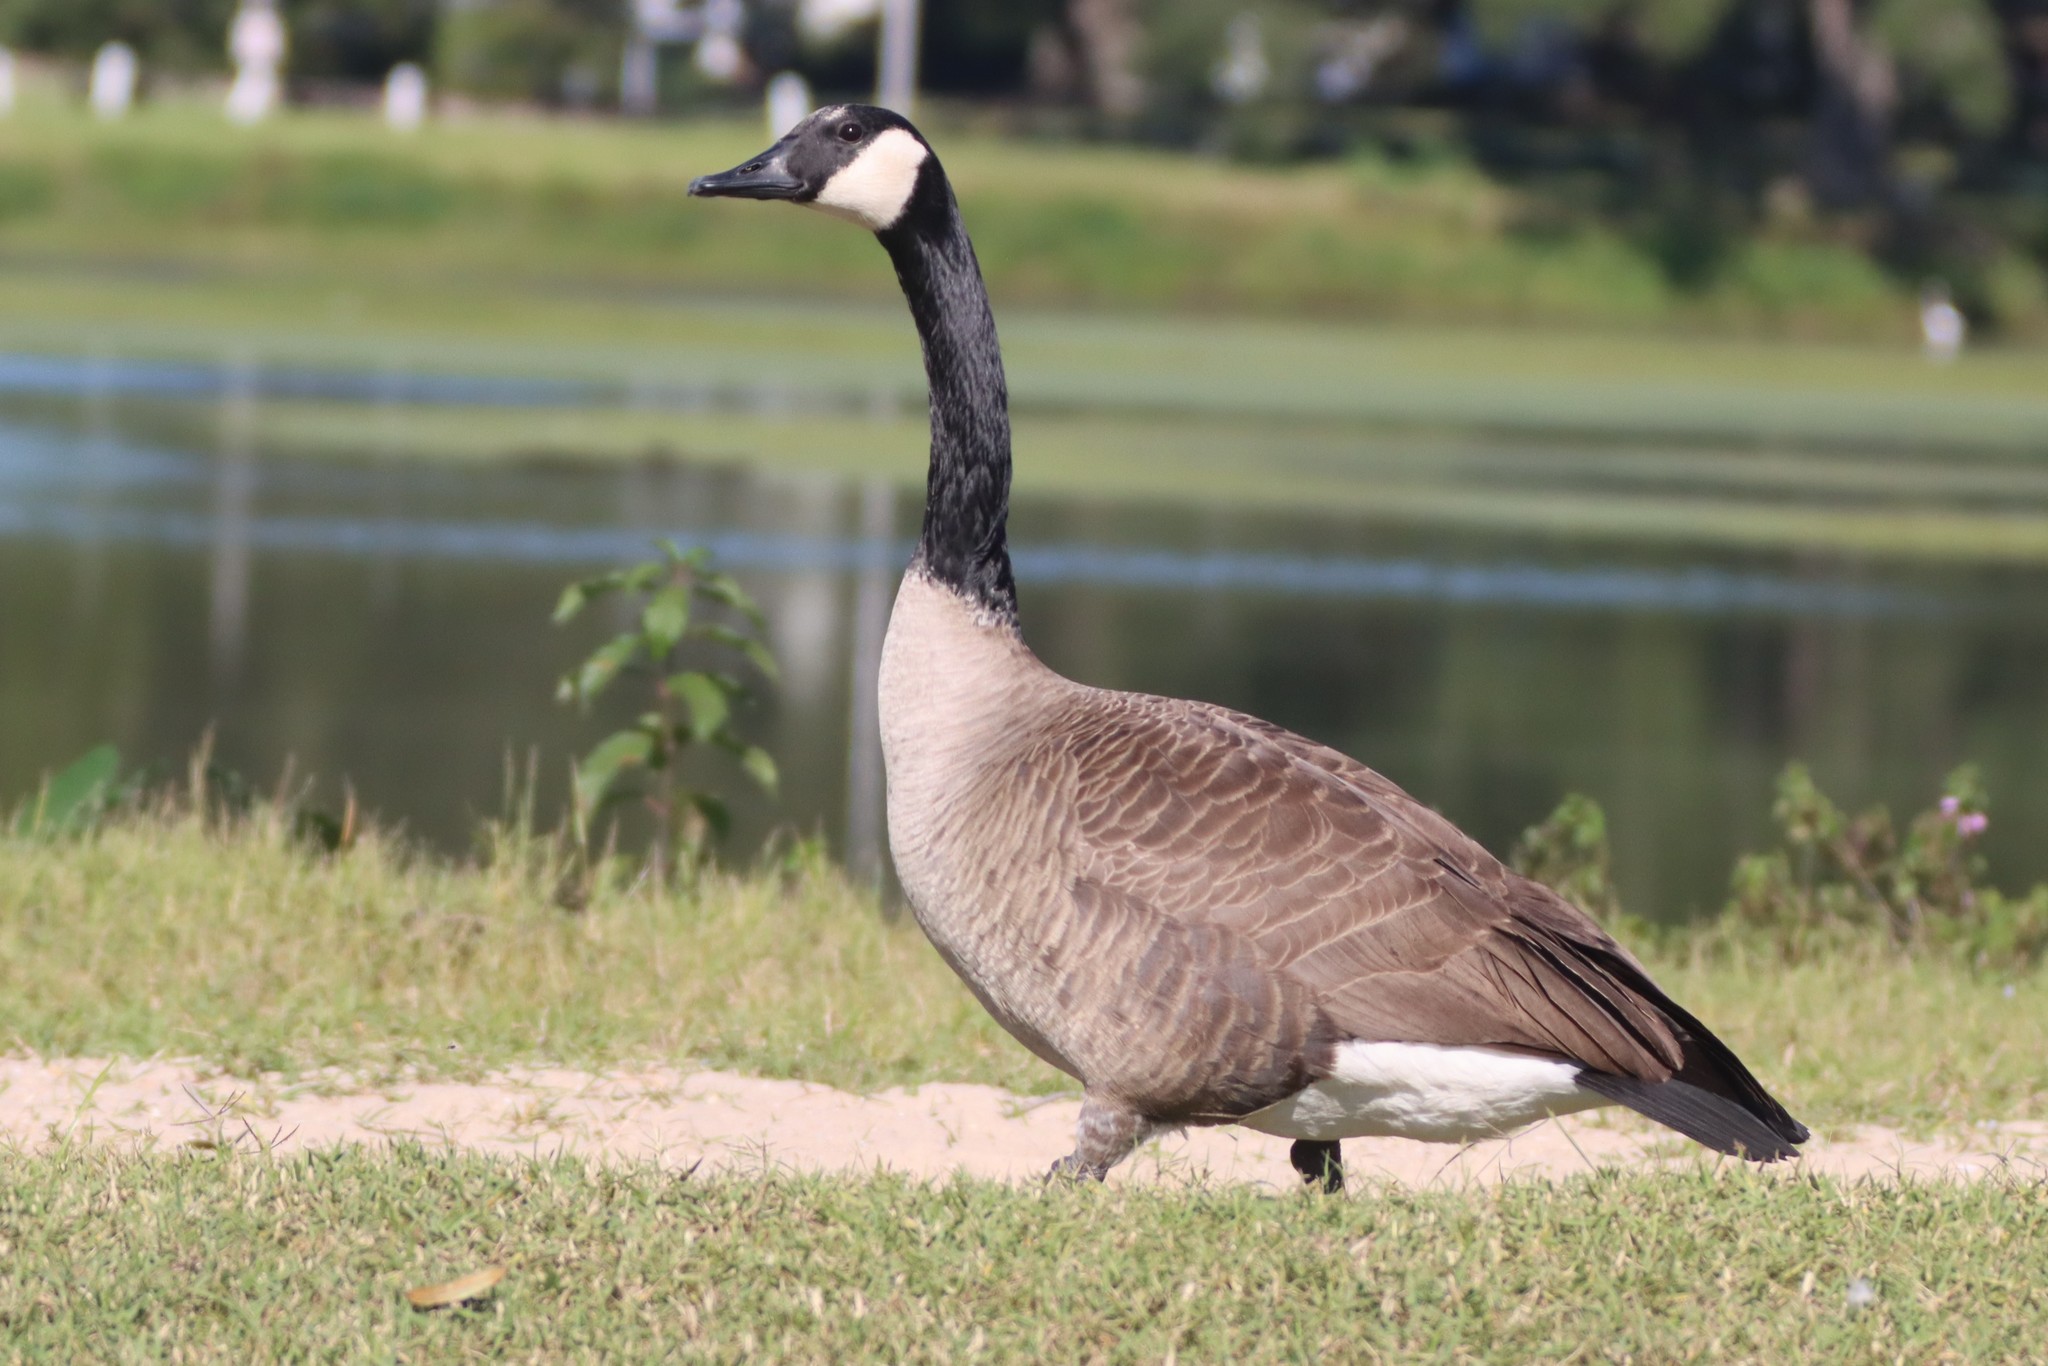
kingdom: Animalia
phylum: Chordata
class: Aves
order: Anseriformes
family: Anatidae
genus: Branta
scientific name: Branta canadensis
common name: Canada goose
